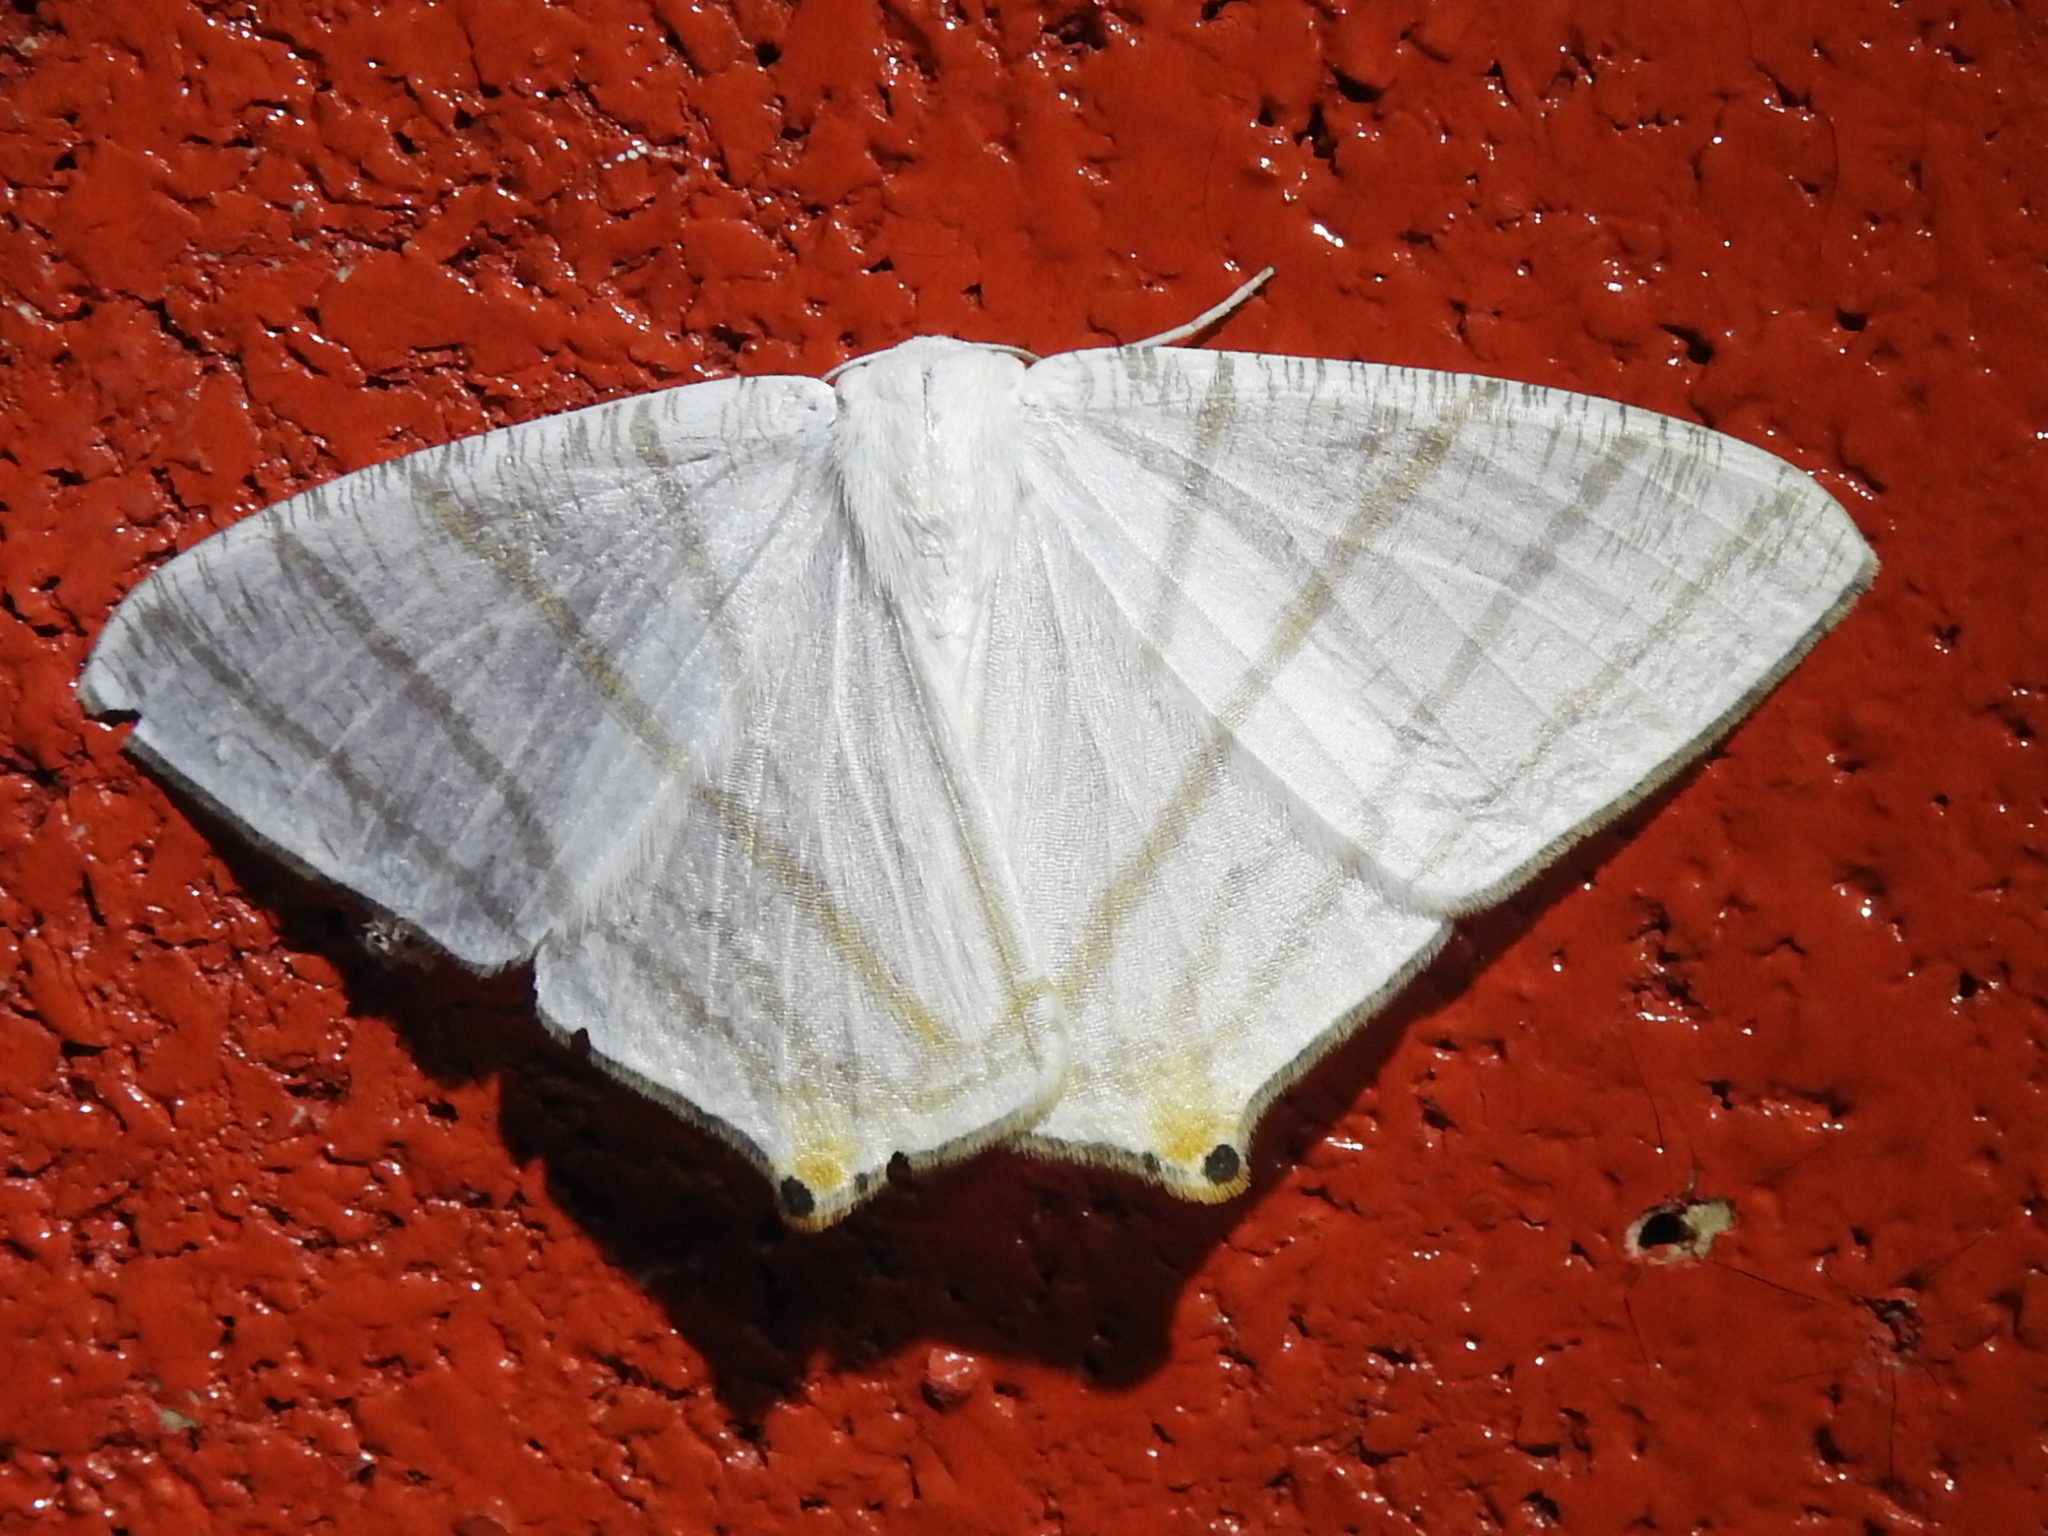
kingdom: Animalia
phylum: Arthropoda
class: Insecta
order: Lepidoptera
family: Geometridae
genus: Brachurapteryx
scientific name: Brachurapteryx tesserata
